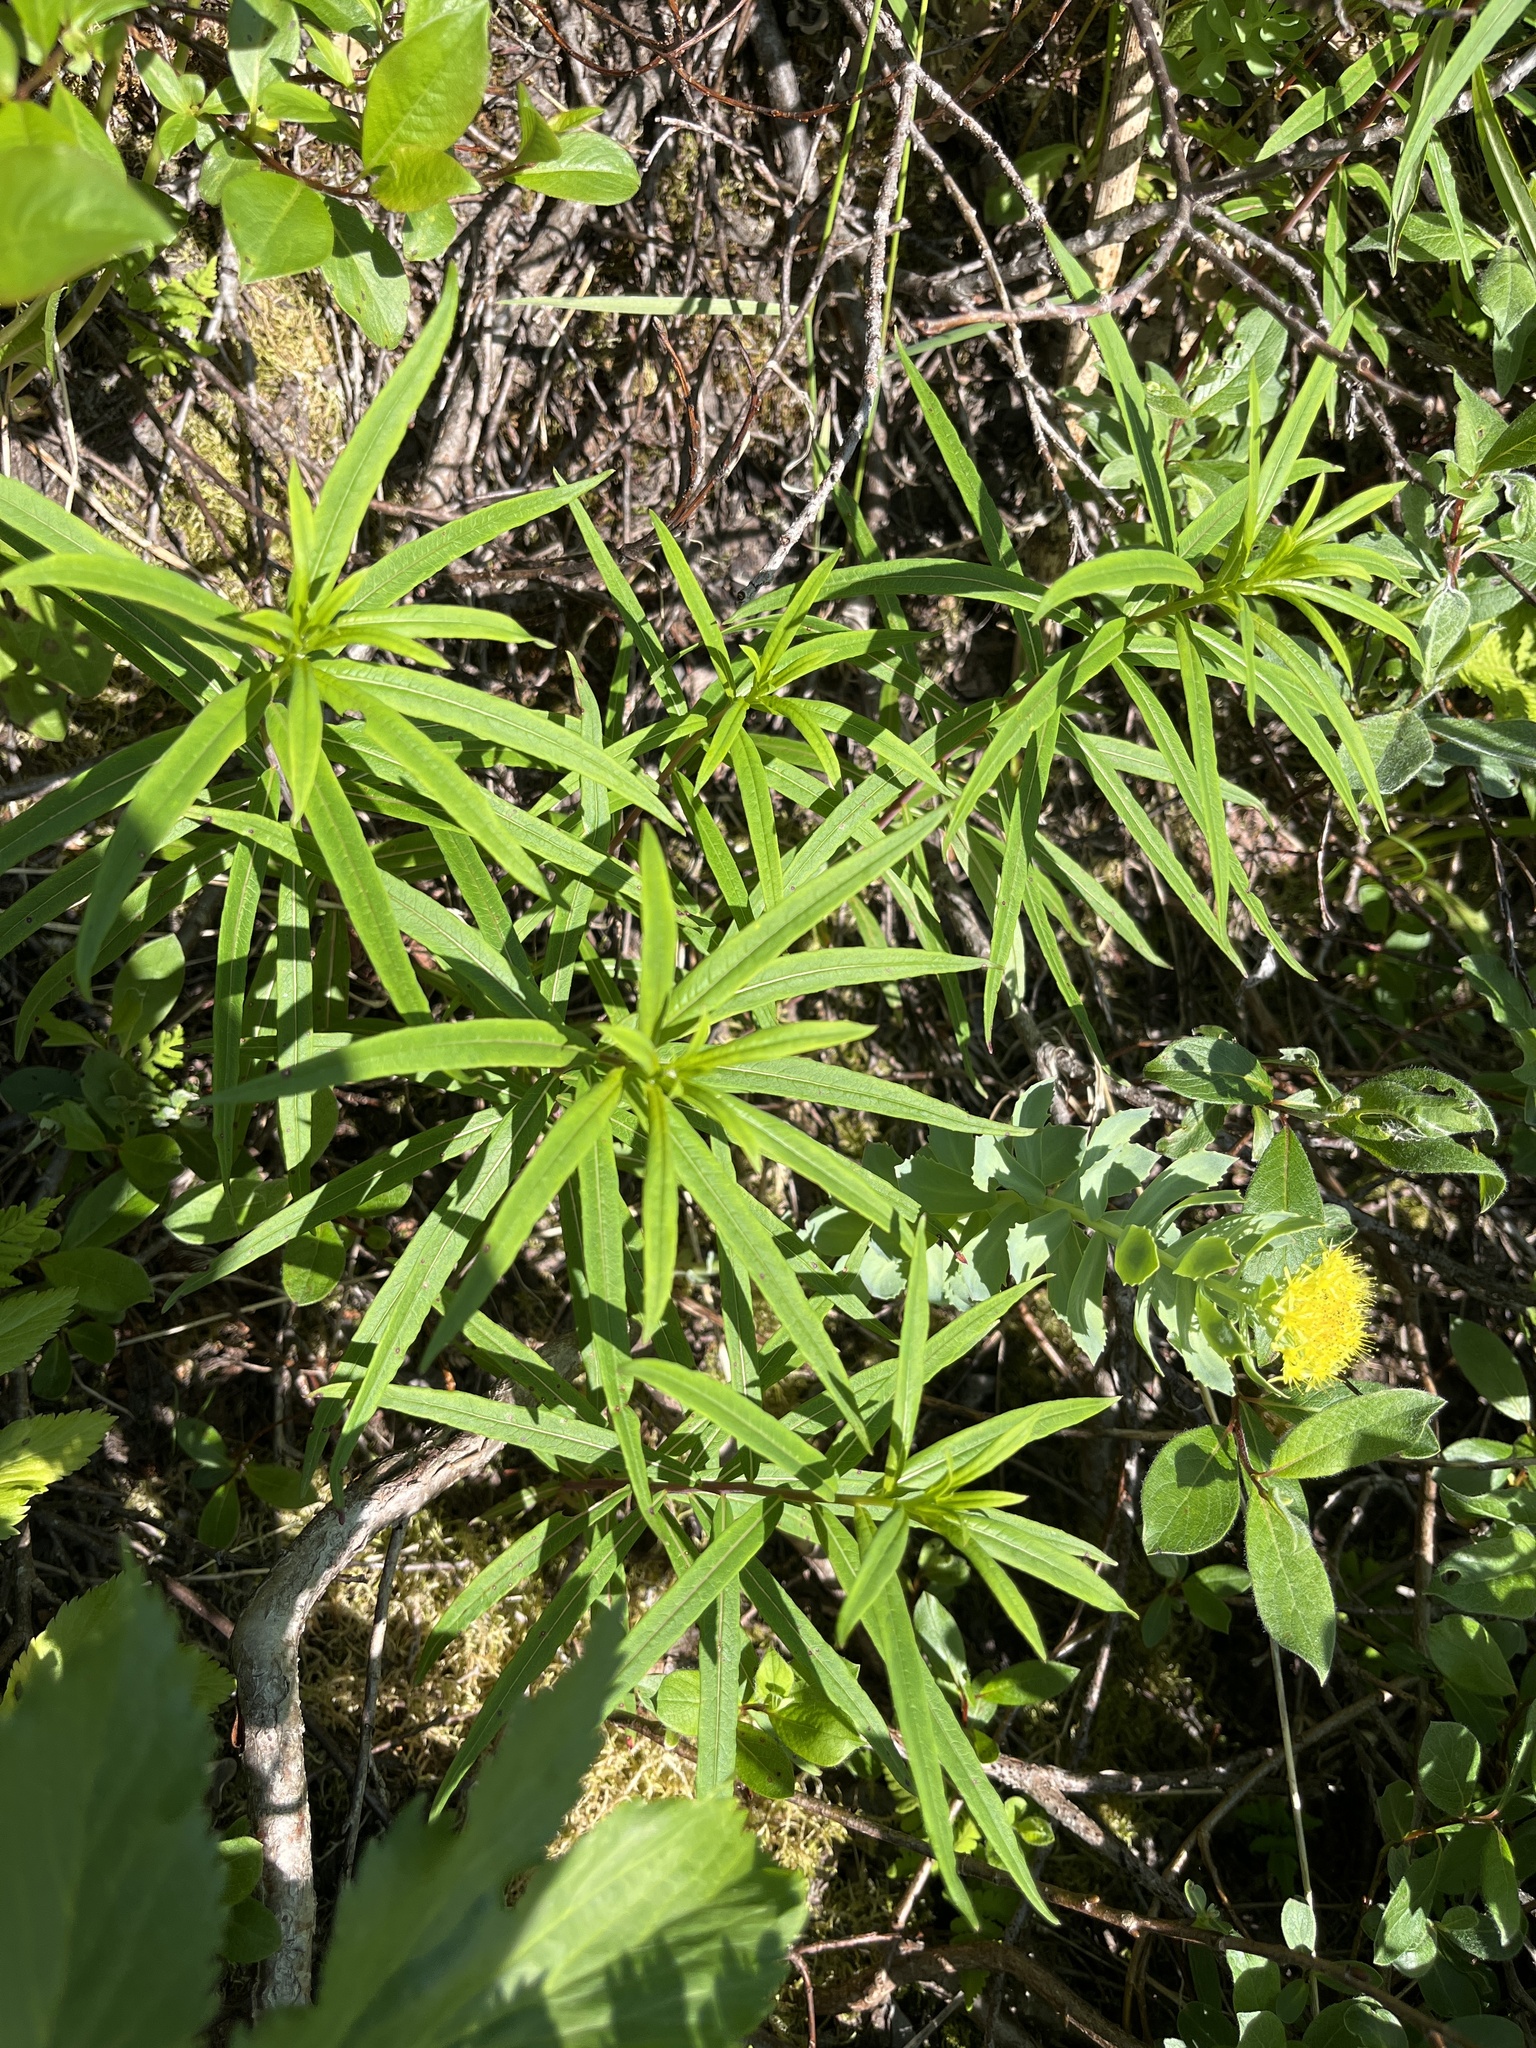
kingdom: Plantae
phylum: Tracheophyta
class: Magnoliopsida
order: Myrtales
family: Onagraceae
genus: Chamaenerion
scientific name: Chamaenerion angustifolium
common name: Fireweed
